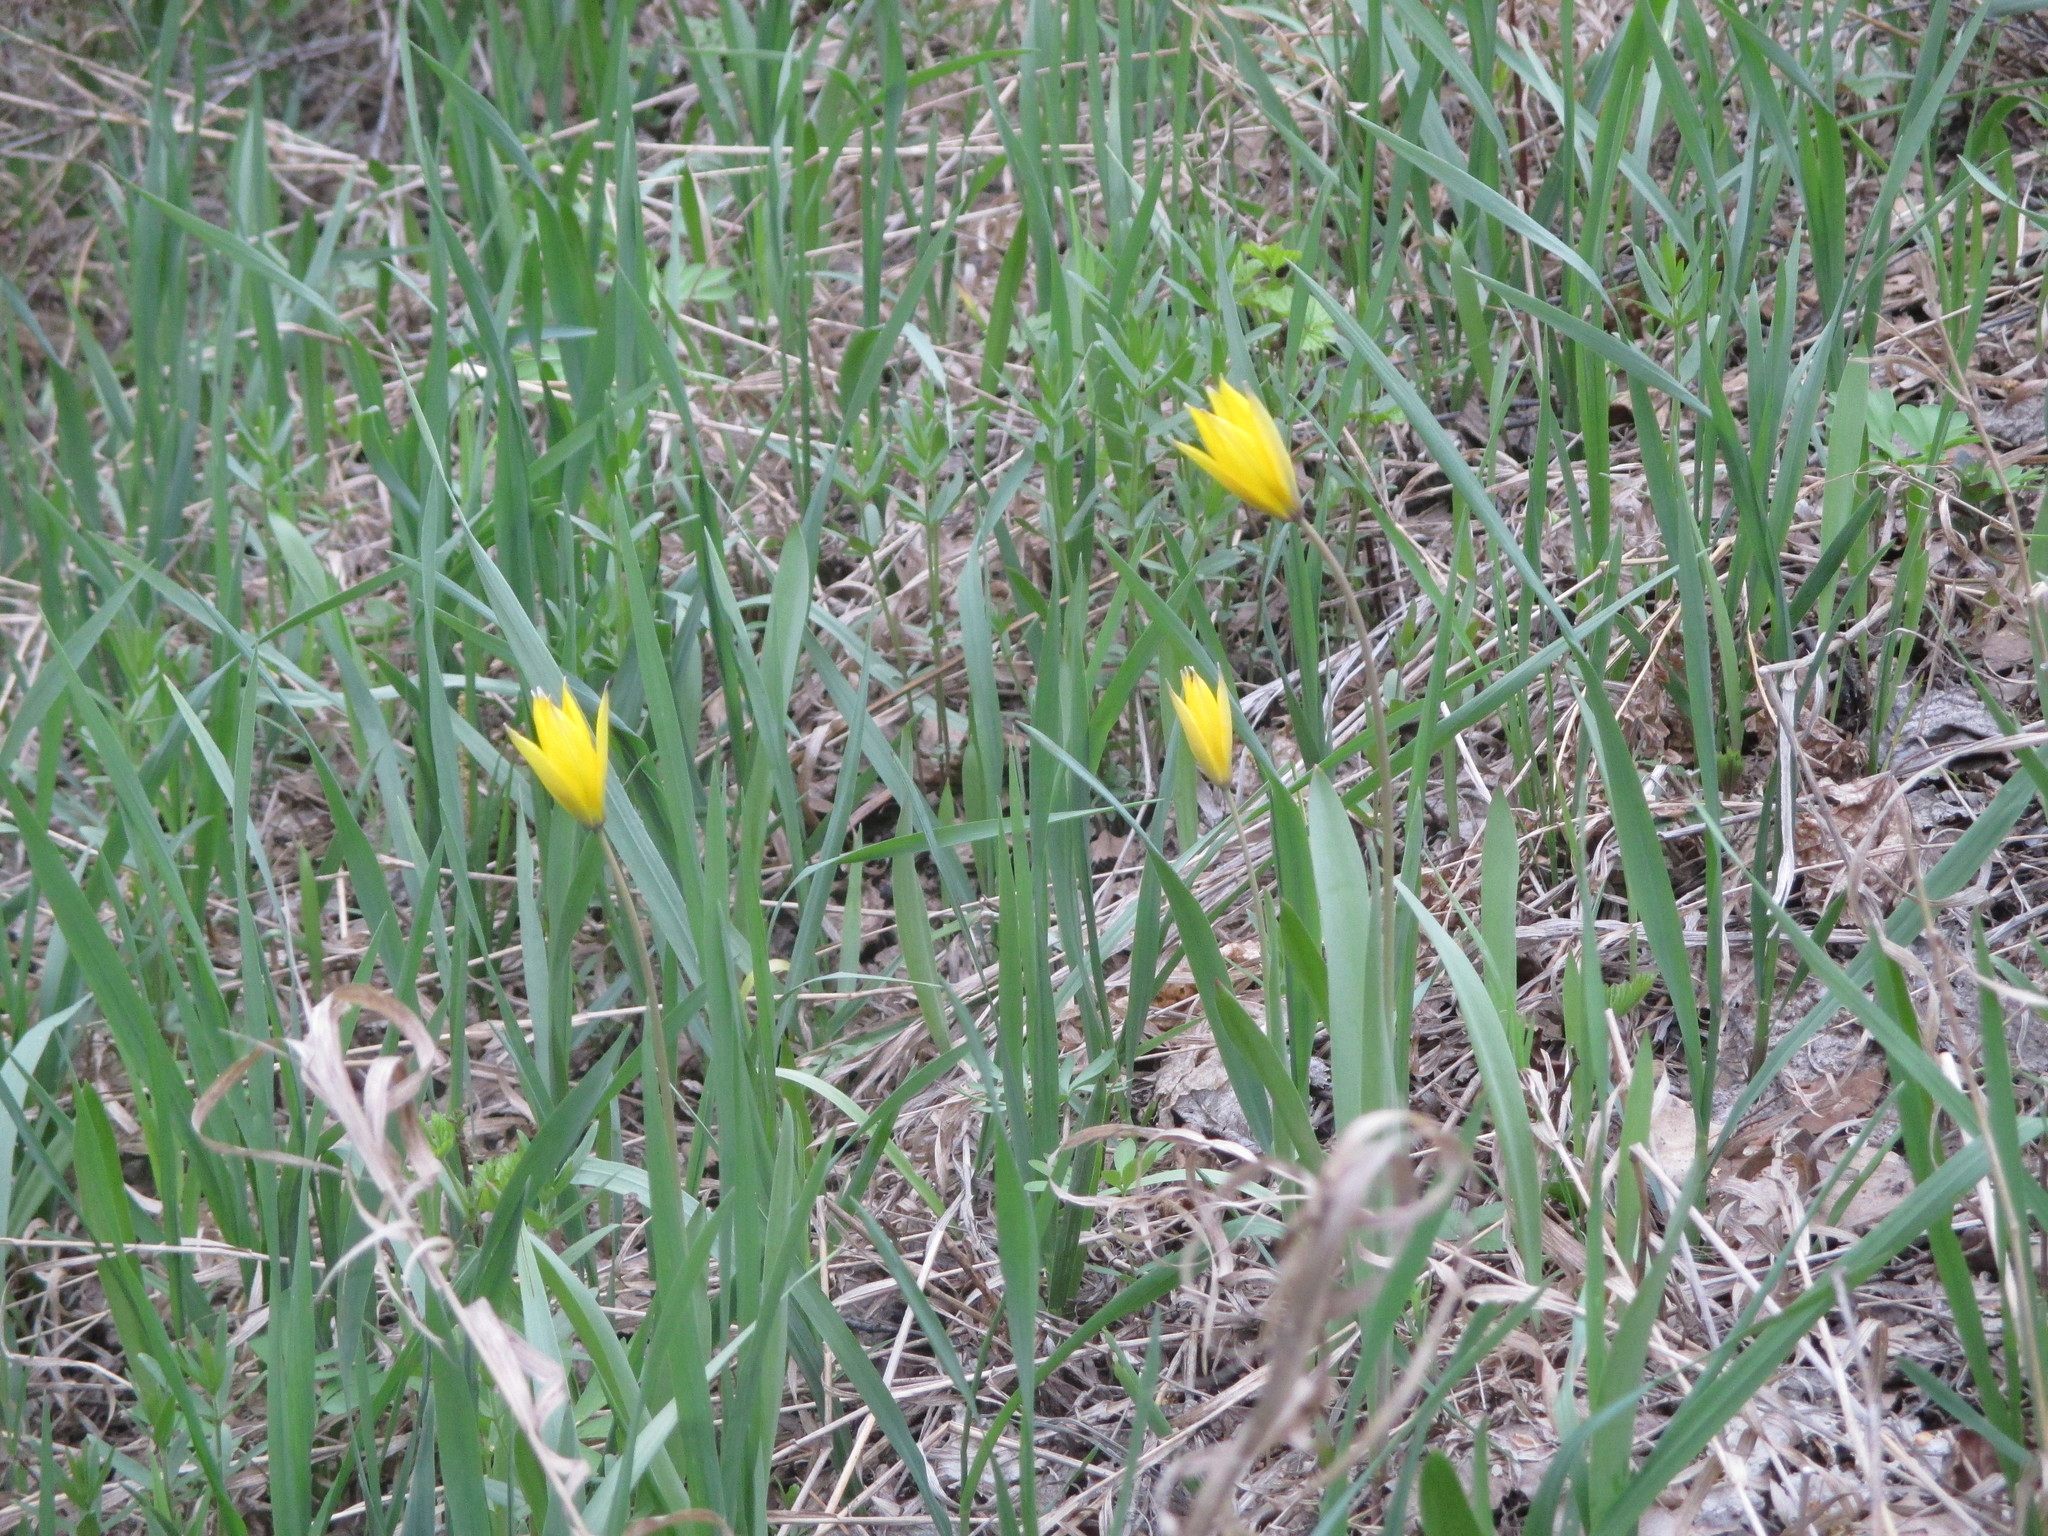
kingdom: Plantae
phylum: Tracheophyta
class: Liliopsida
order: Liliales
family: Liliaceae
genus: Tulipa
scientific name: Tulipa sylvestris
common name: Wild tulip
